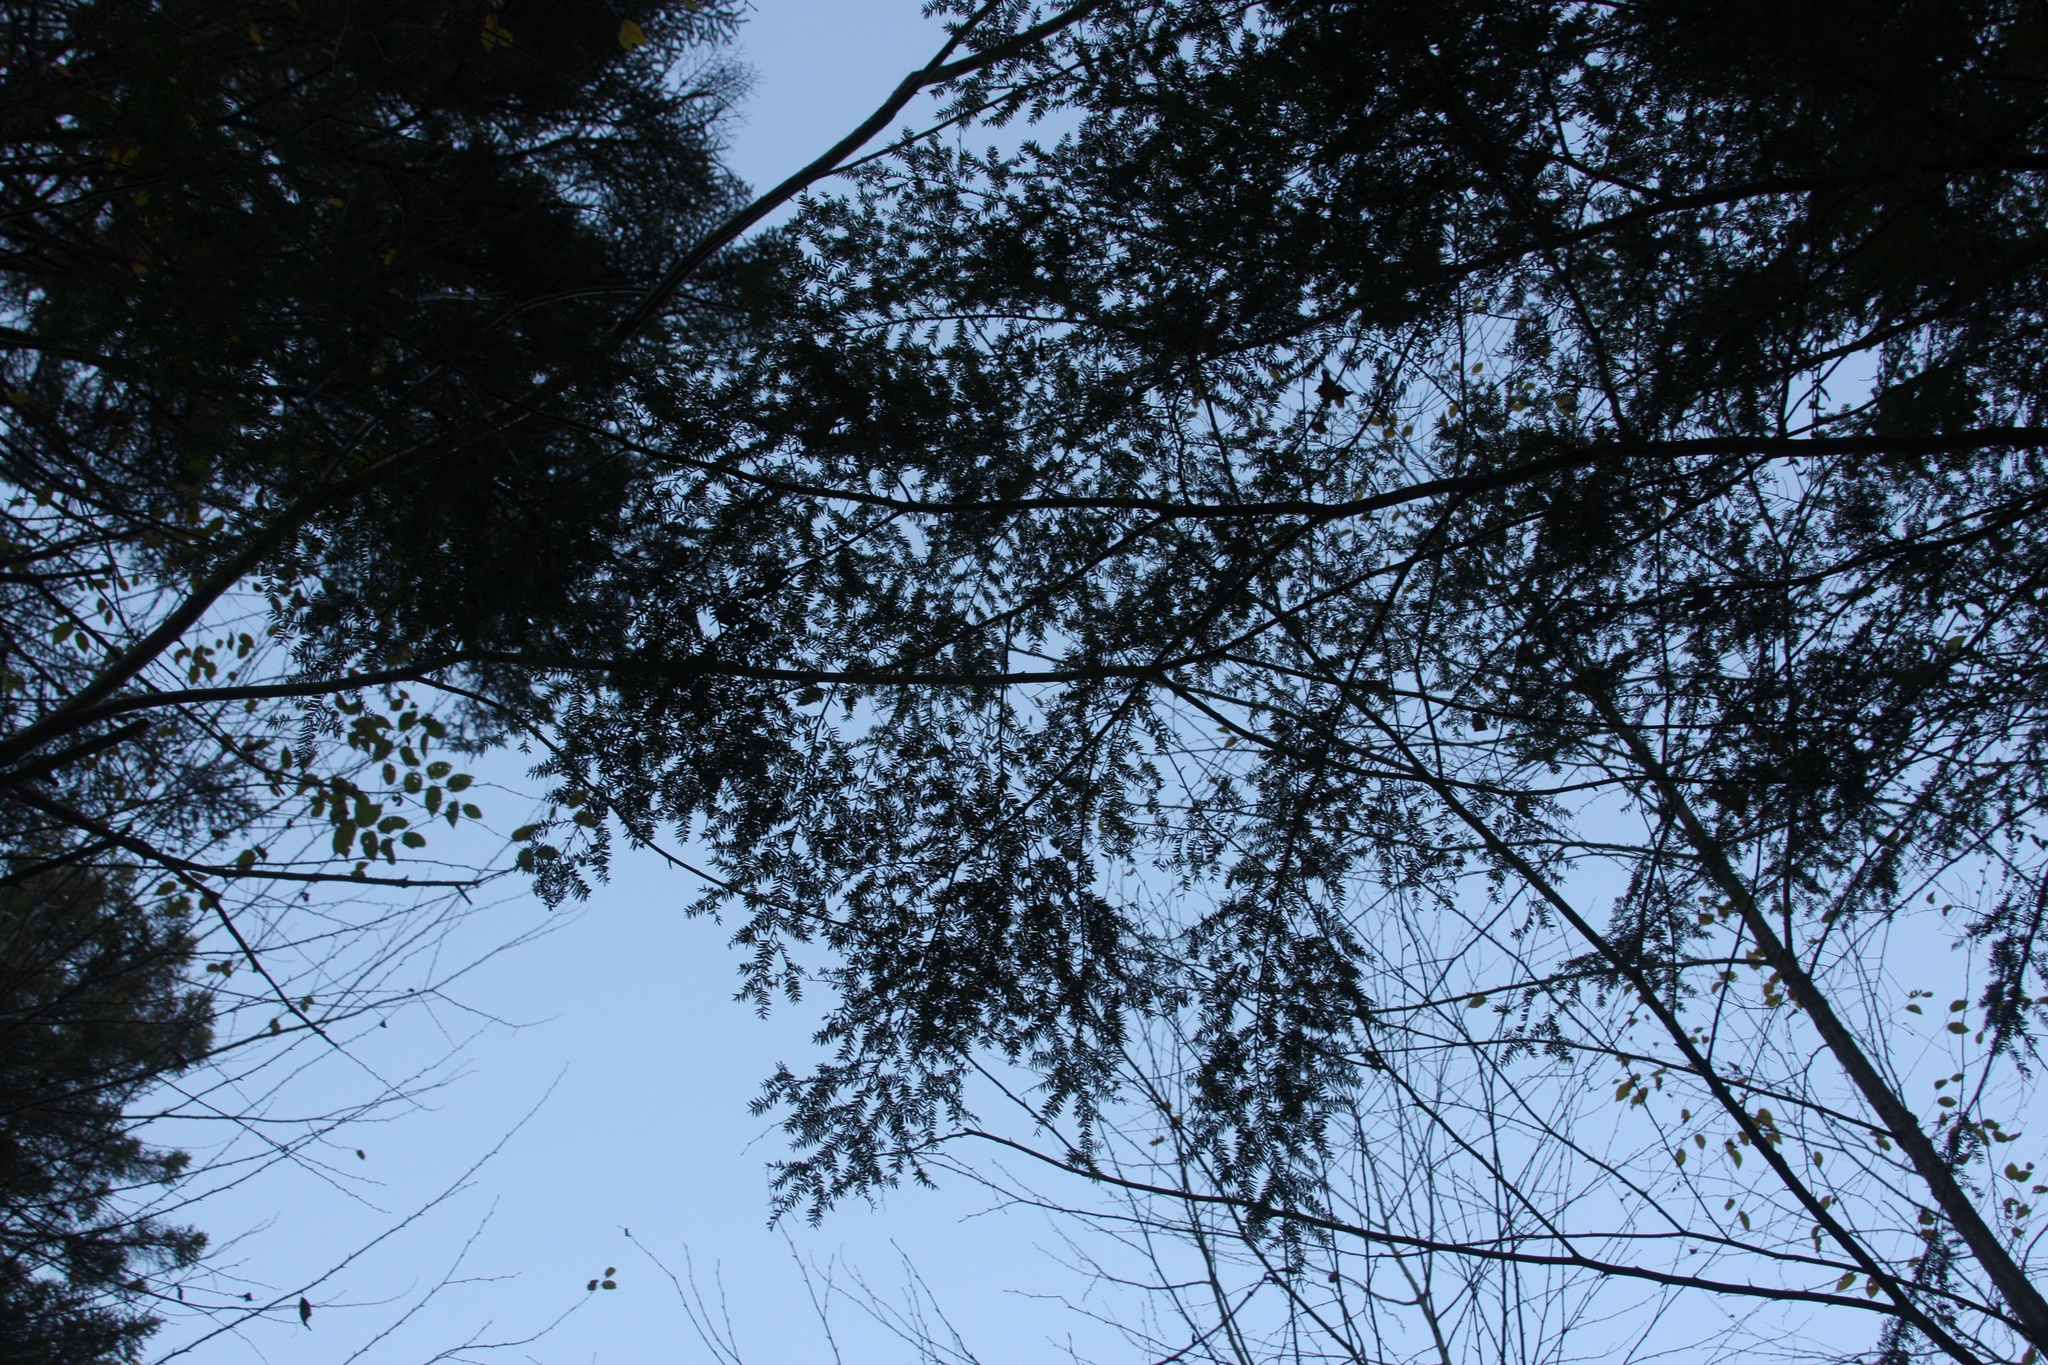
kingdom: Plantae
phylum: Tracheophyta
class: Pinopsida
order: Pinales
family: Pinaceae
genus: Tsuga
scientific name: Tsuga canadensis
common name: Eastern hemlock
